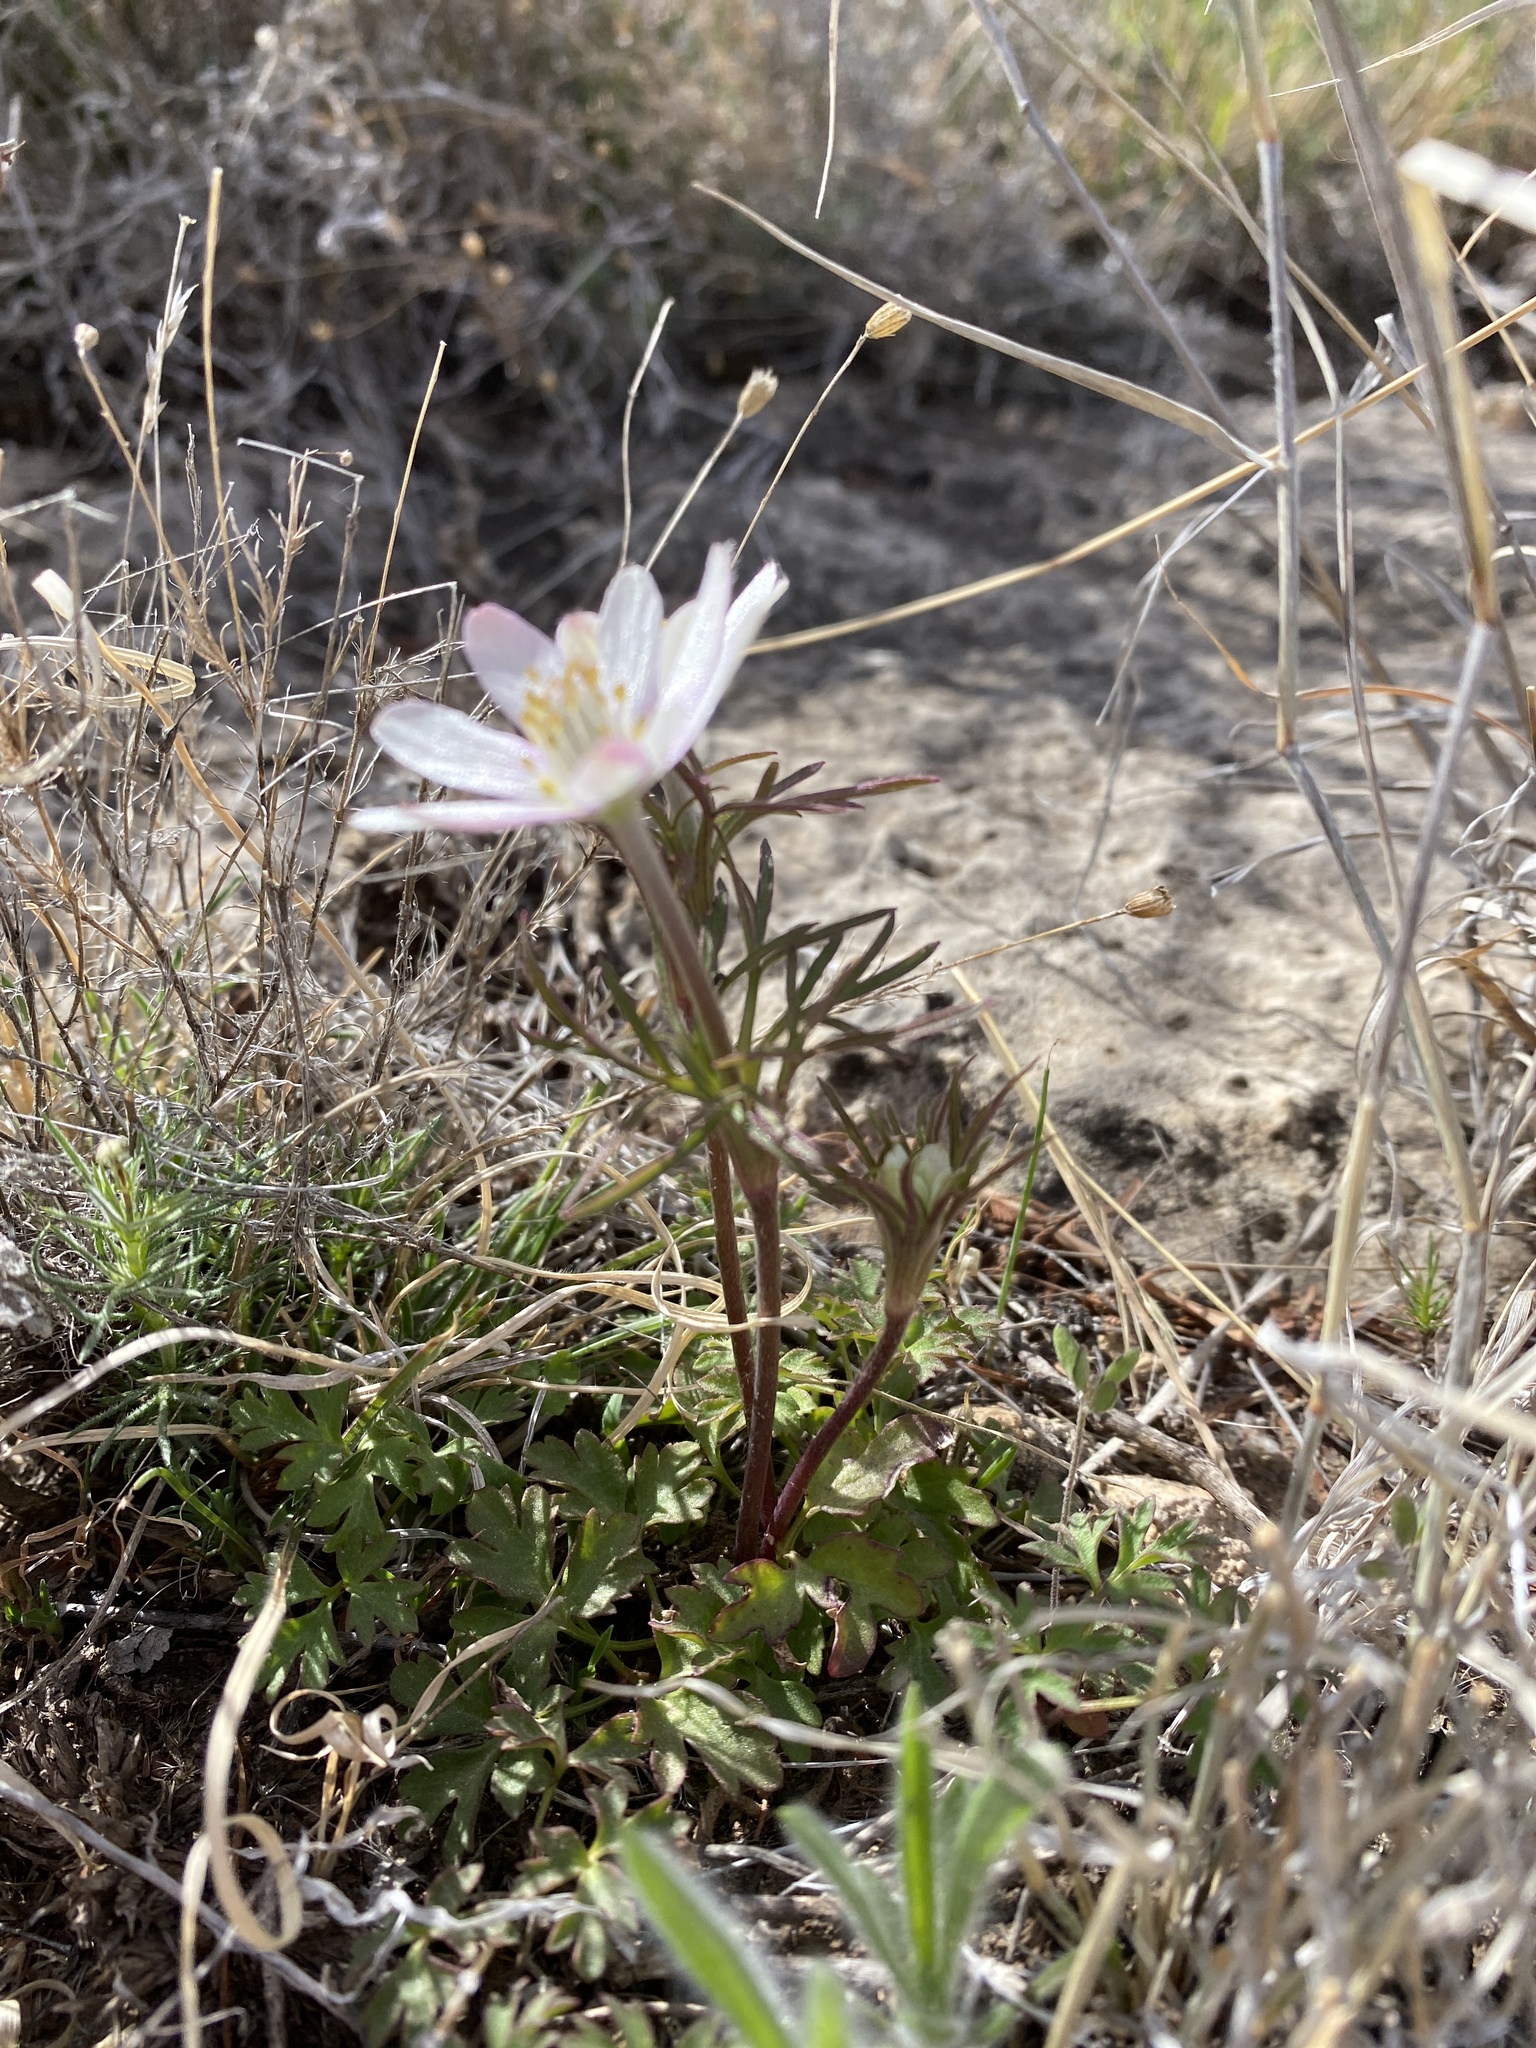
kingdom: Plantae
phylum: Tracheophyta
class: Magnoliopsida
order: Ranunculales
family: Ranunculaceae
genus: Anemone
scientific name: Anemone tuberosa
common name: Desert anemone
